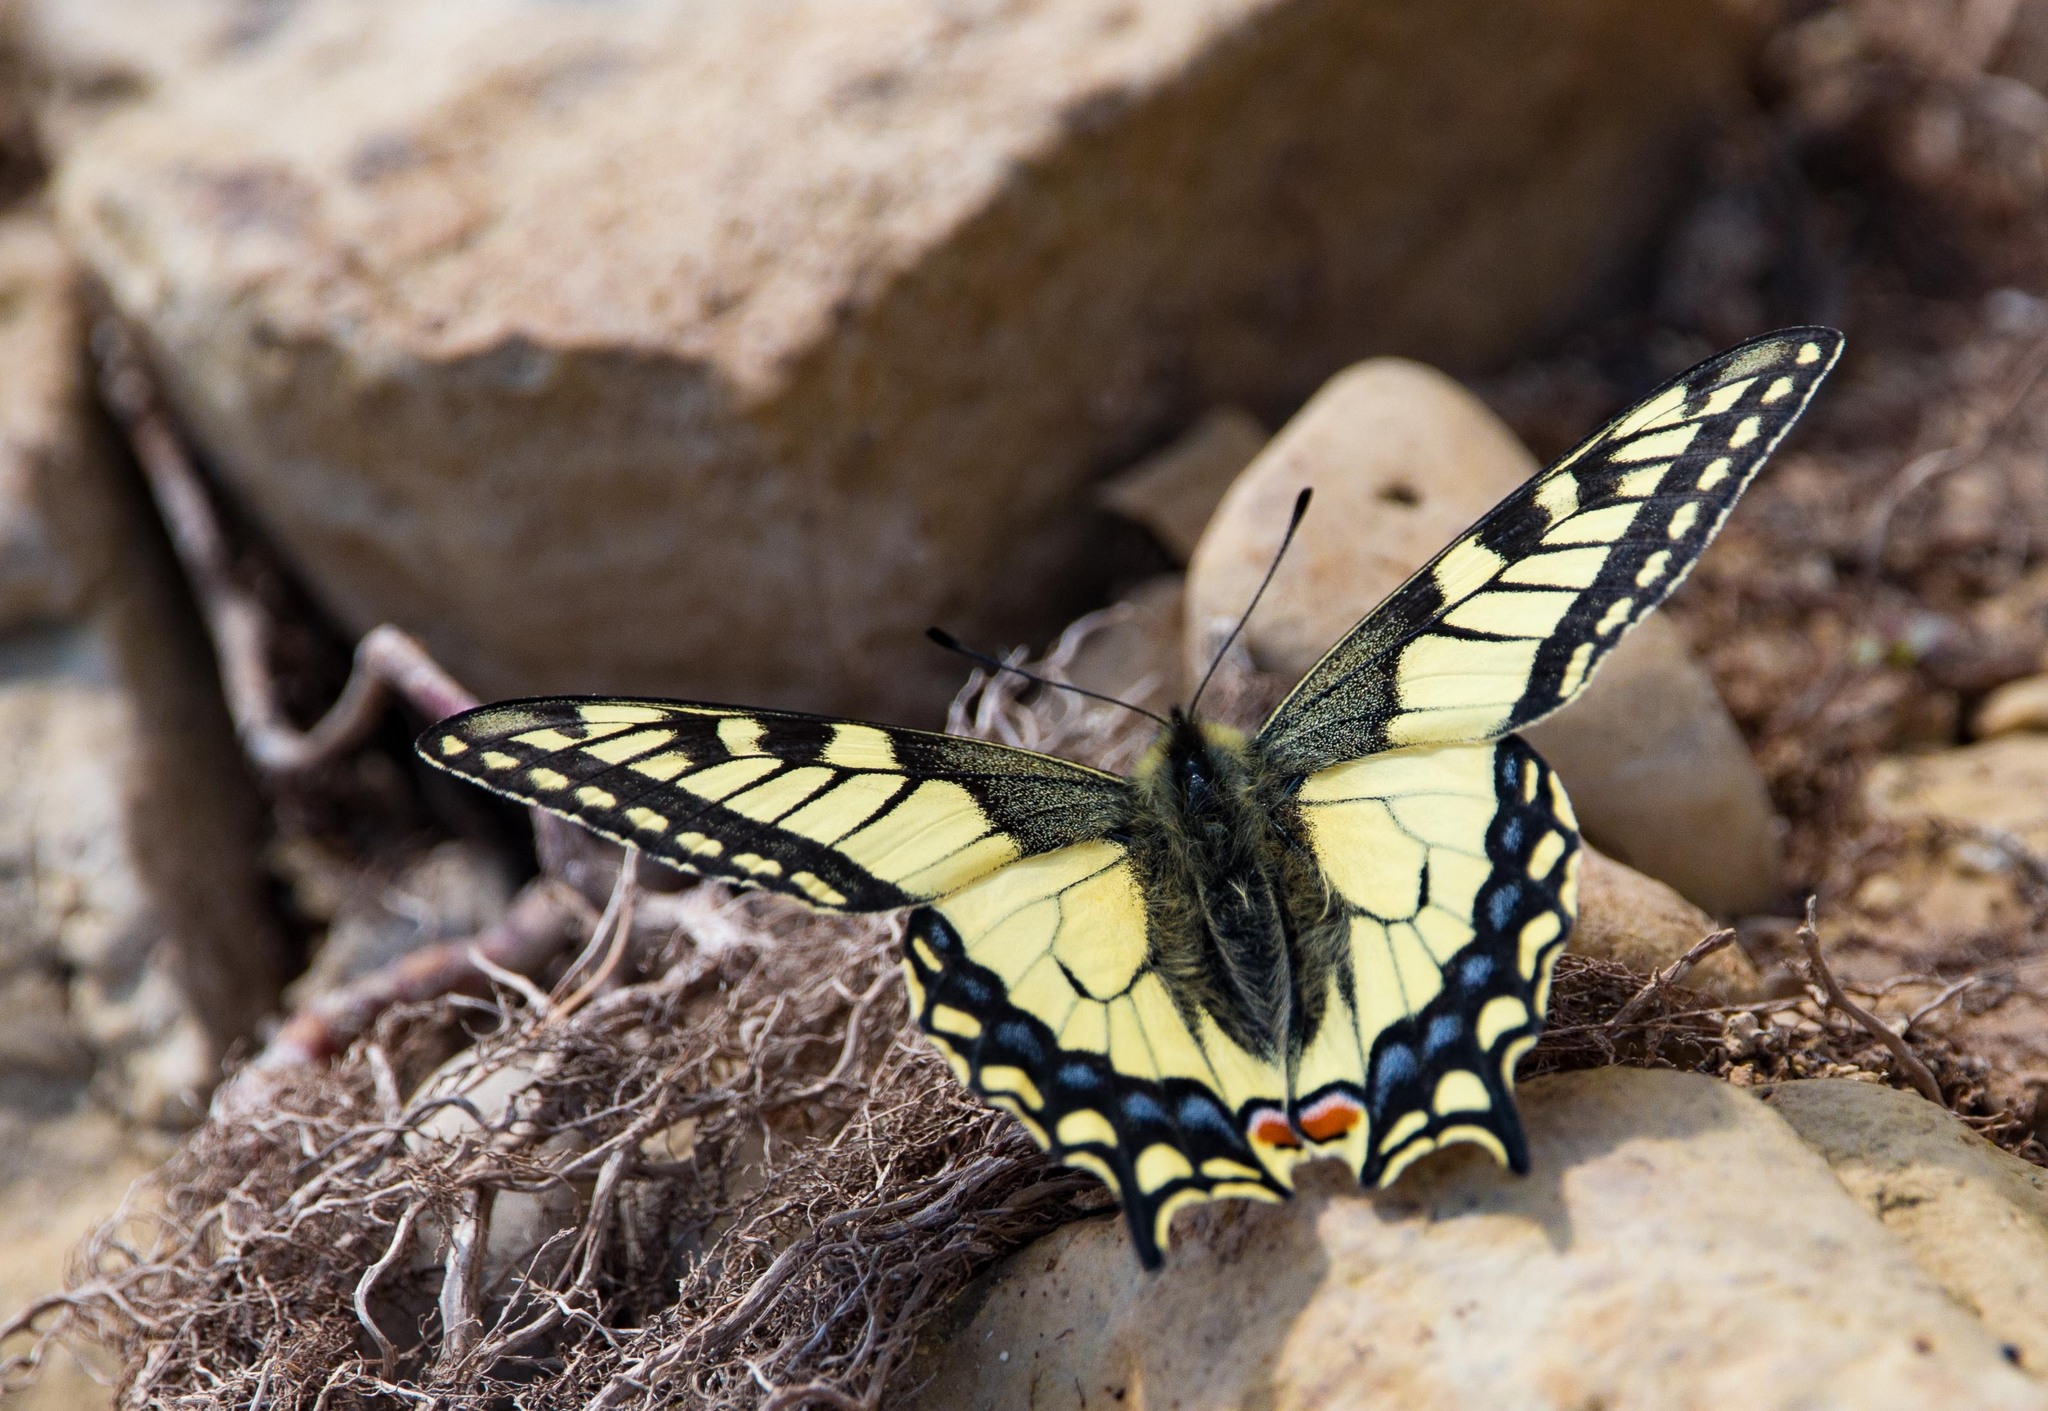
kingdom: Animalia
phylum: Arthropoda
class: Insecta
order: Lepidoptera
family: Papilionidae
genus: Papilio
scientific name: Papilio machaon
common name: Swallowtail
